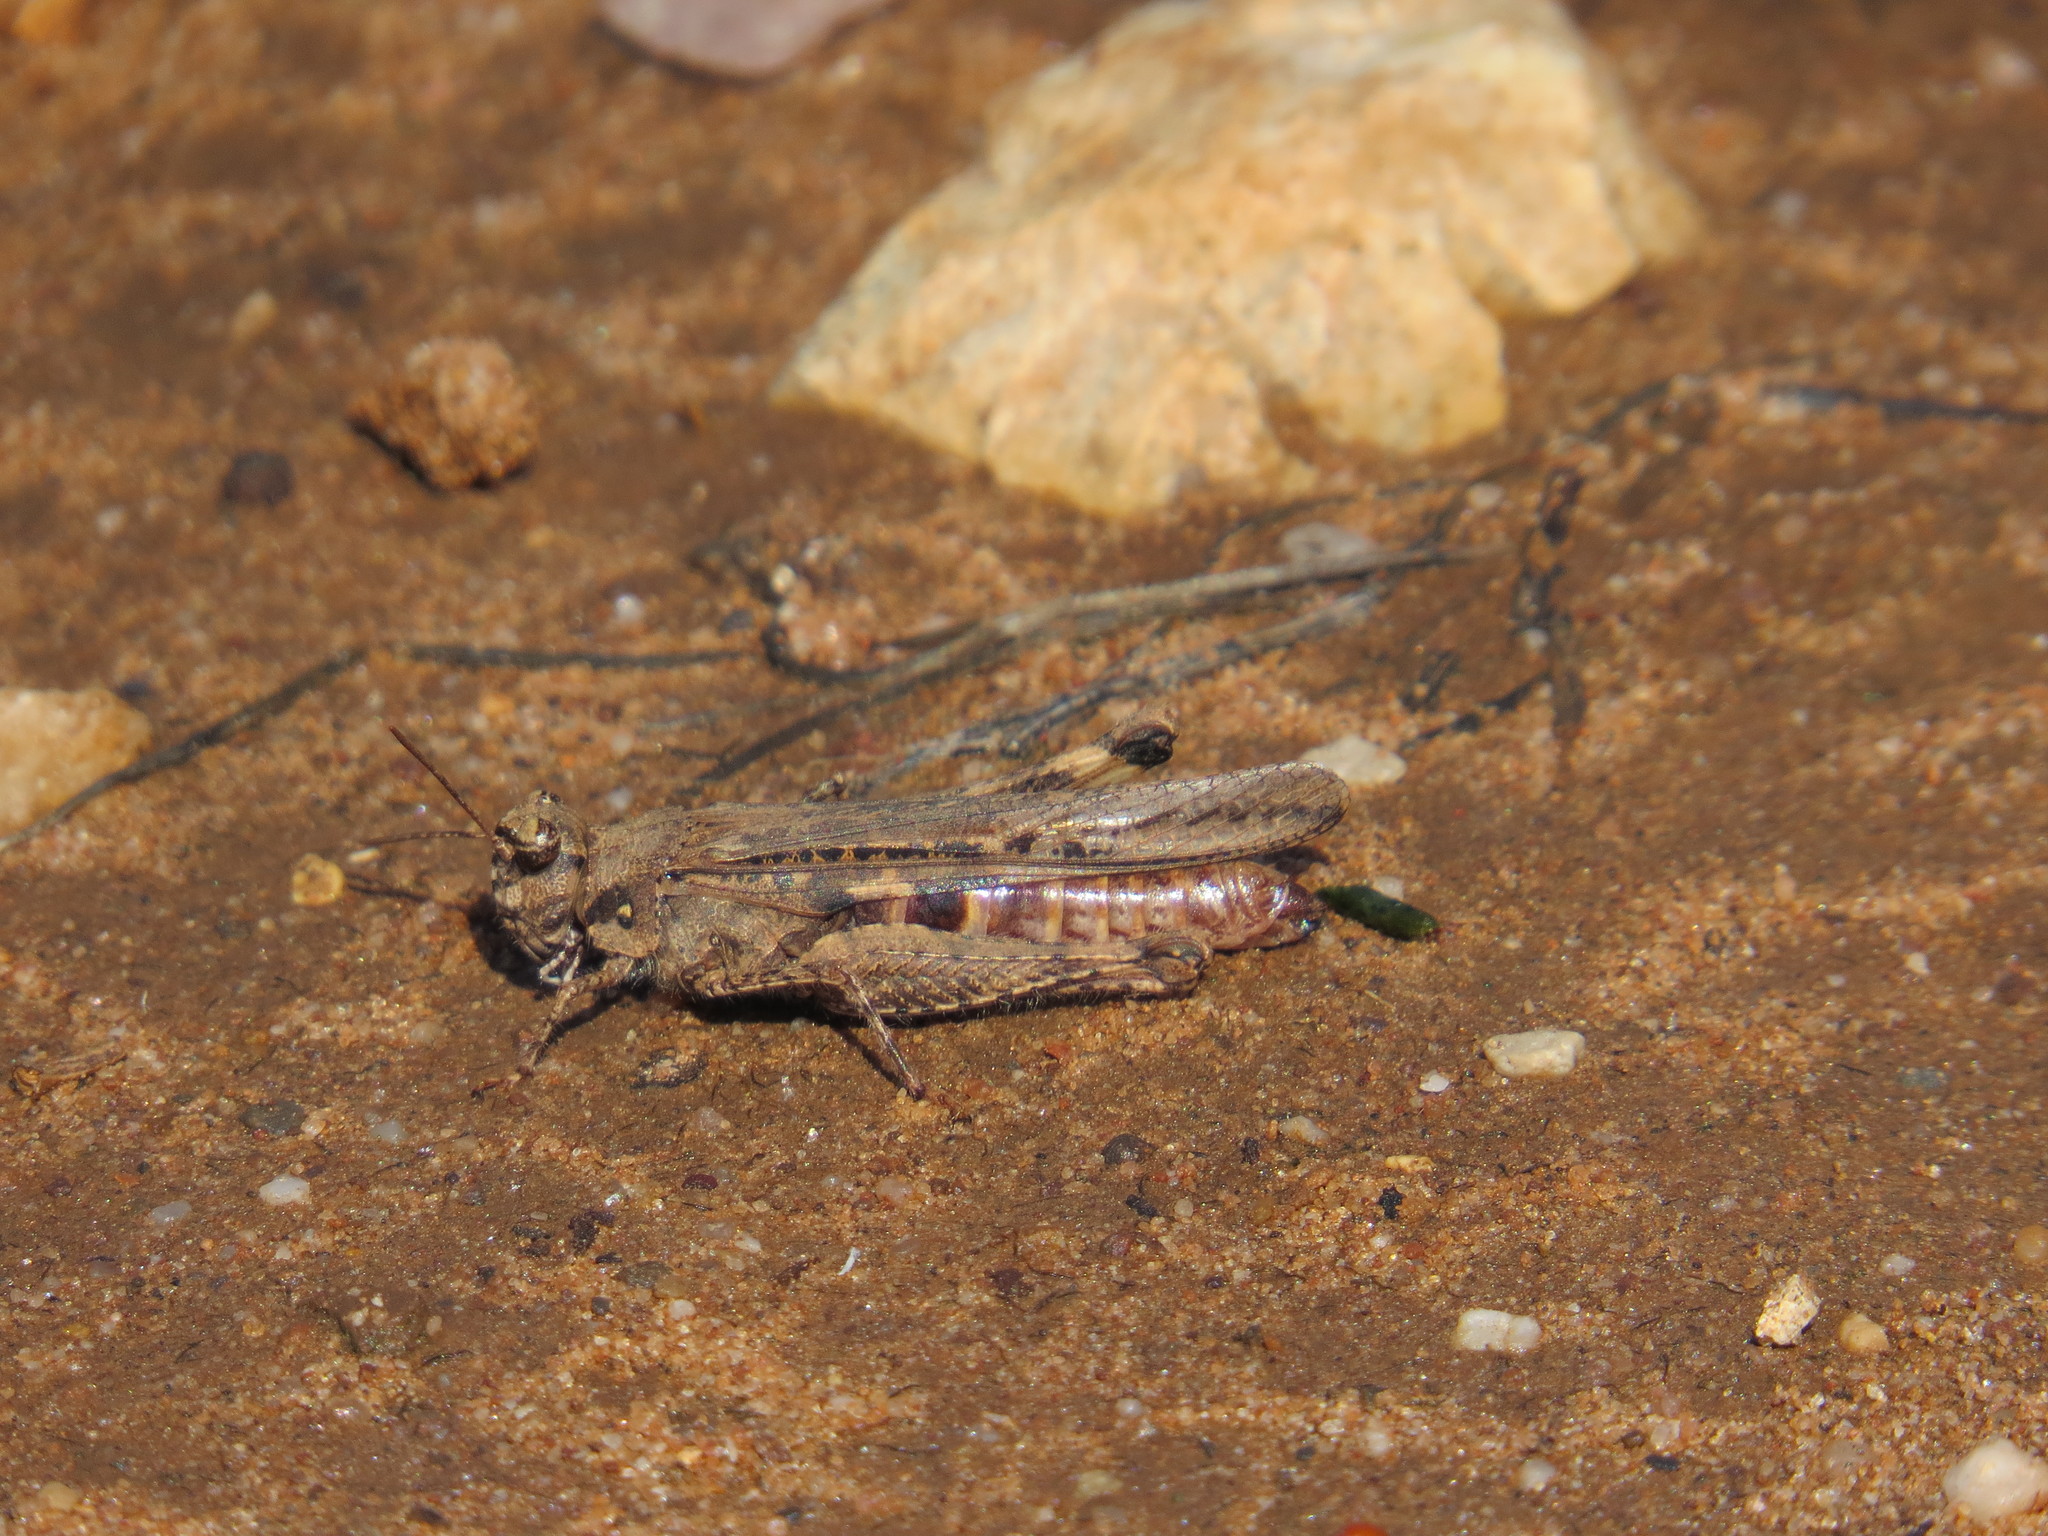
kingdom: Animalia
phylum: Arthropoda
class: Insecta
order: Orthoptera
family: Acrididae
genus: Acrotylus
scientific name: Acrotylus insubricus
